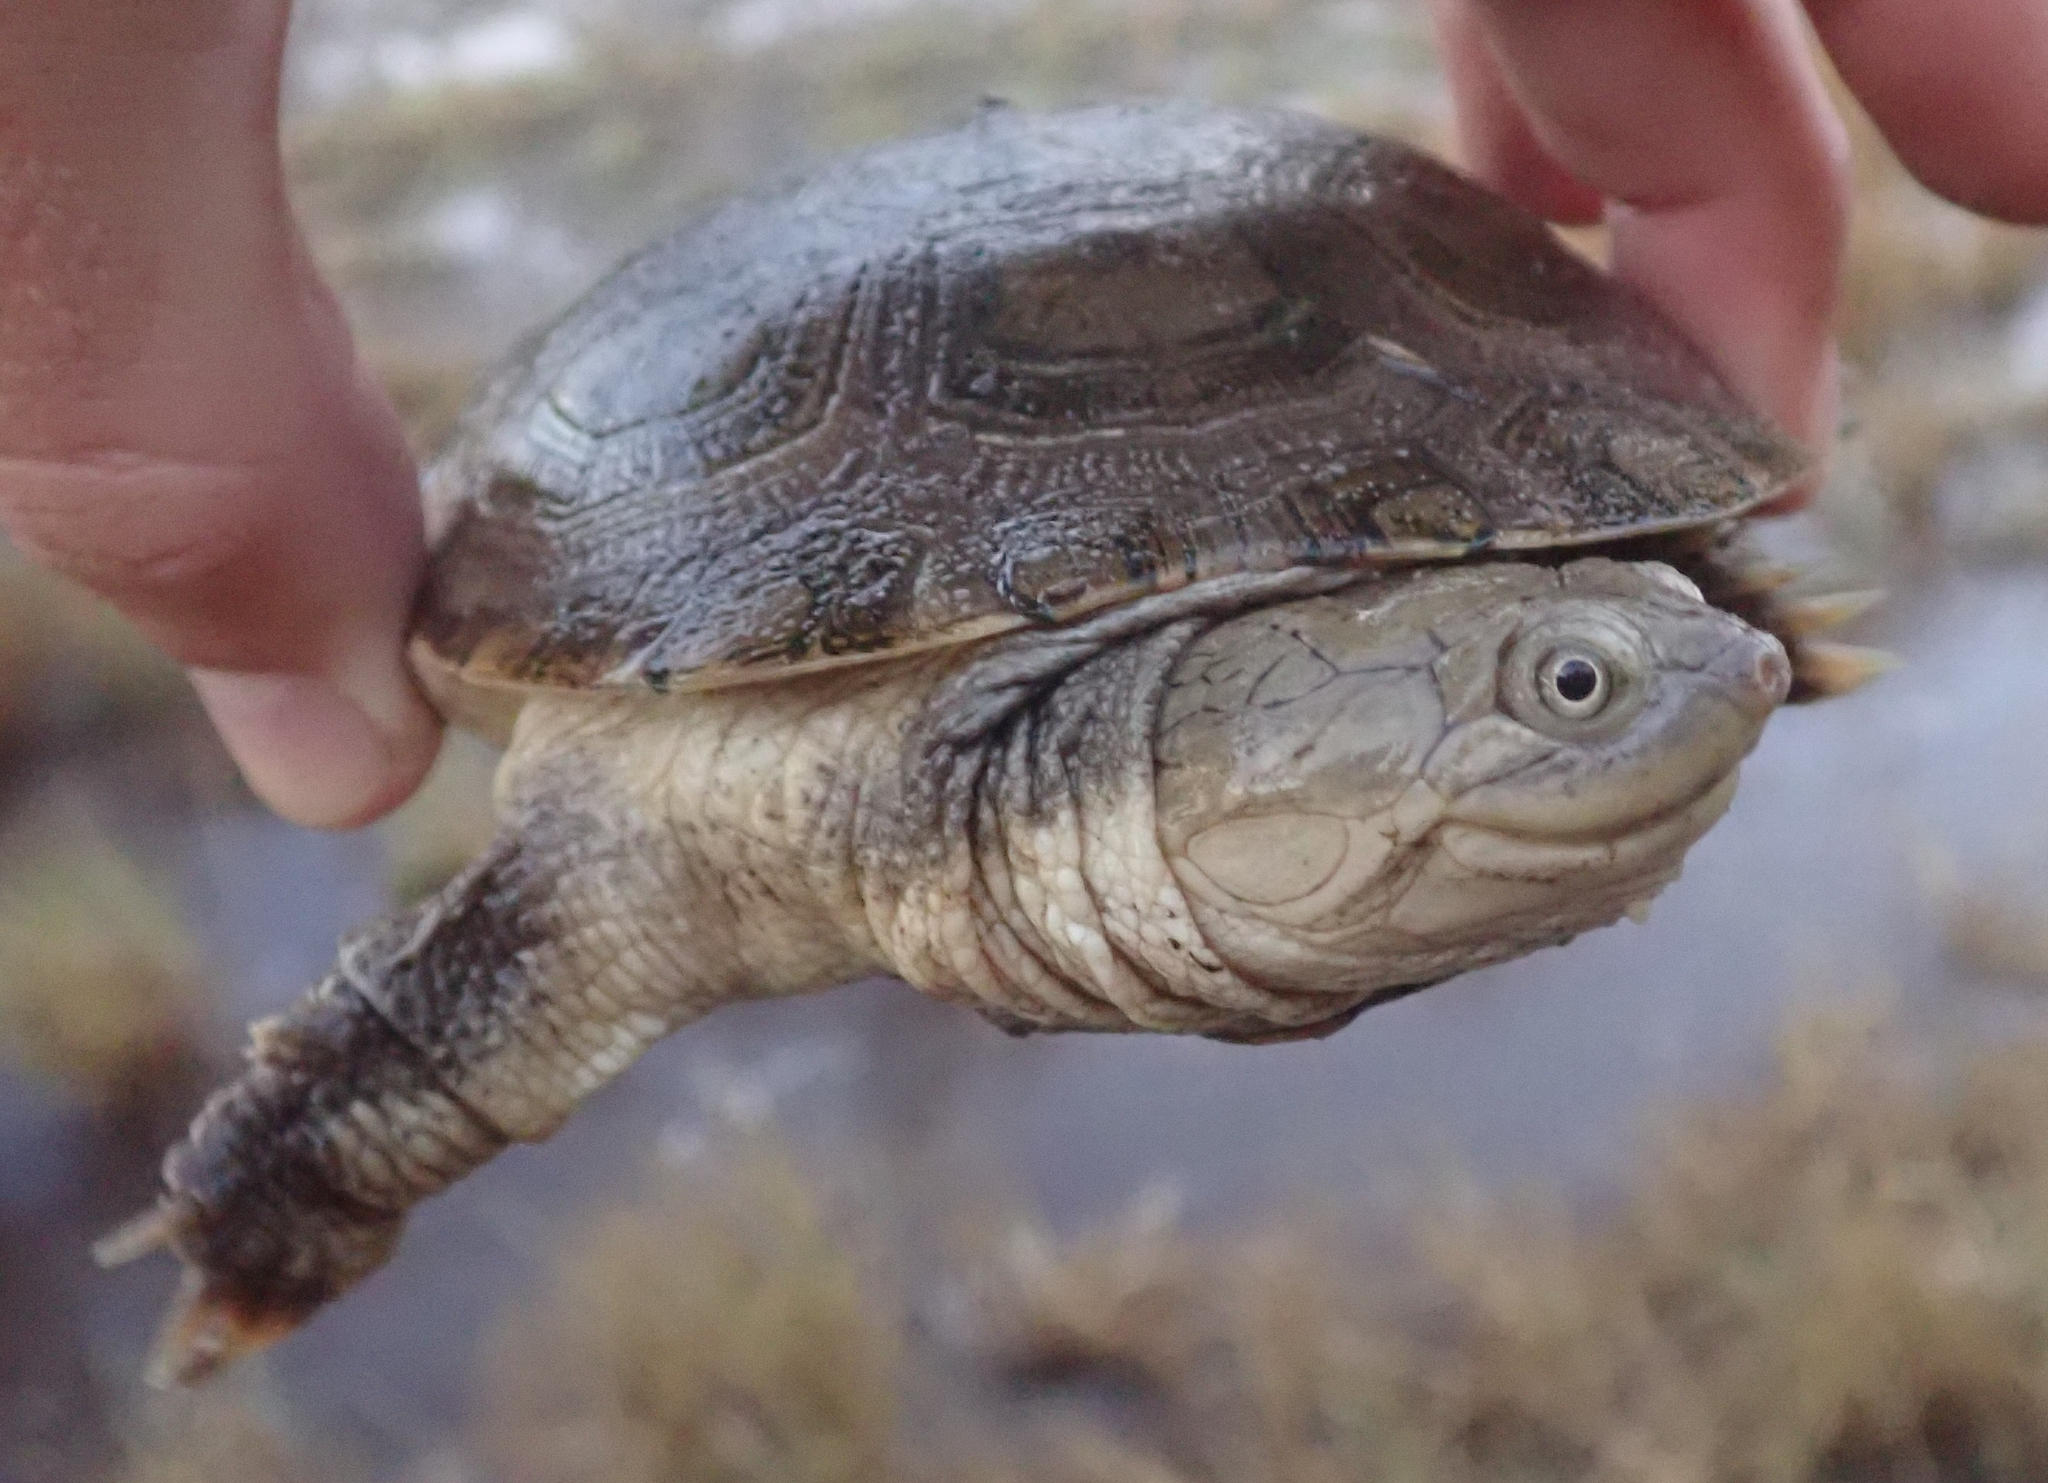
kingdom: Animalia
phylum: Chordata
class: Testudines
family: Pelomedusidae
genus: Pelomedusa
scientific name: Pelomedusa subrufa
